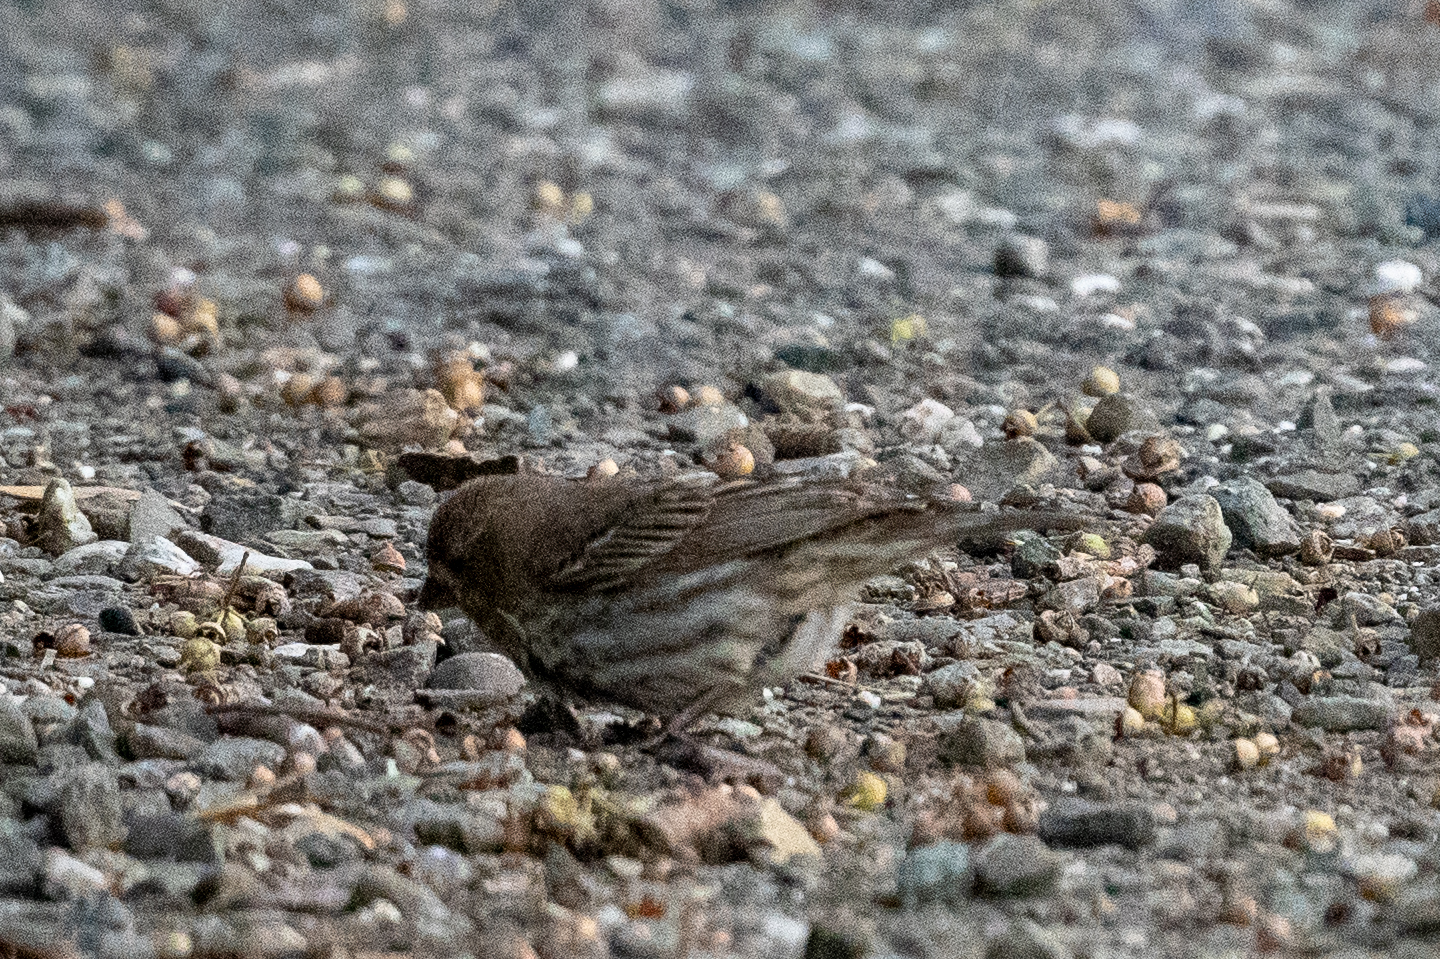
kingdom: Animalia
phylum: Chordata
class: Aves
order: Passeriformes
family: Fringillidae
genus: Haemorhous
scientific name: Haemorhous mexicanus
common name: House finch
